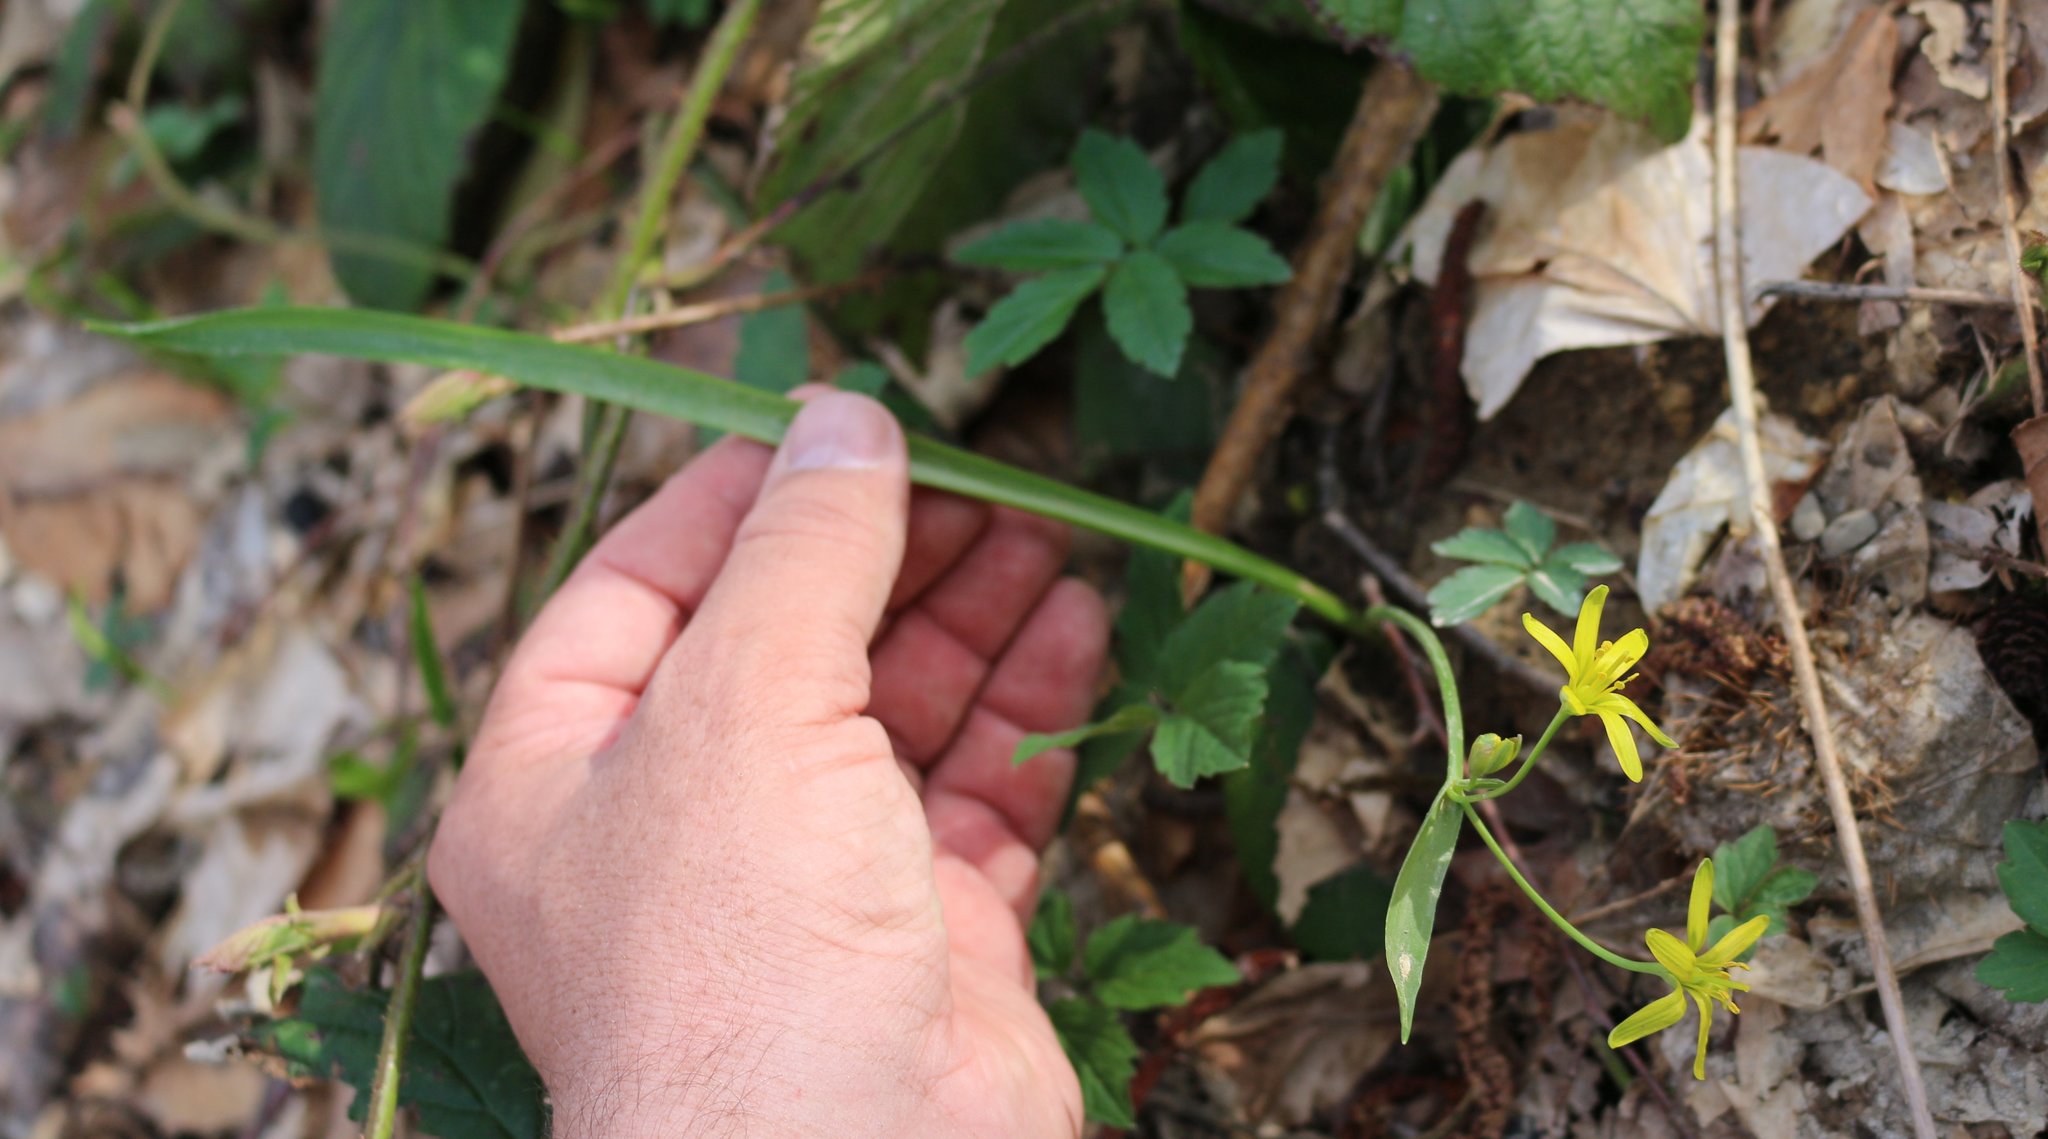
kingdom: Plantae
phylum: Tracheophyta
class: Liliopsida
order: Liliales
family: Liliaceae
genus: Gagea
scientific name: Gagea lutea
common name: Yellow star-of-bethlehem
